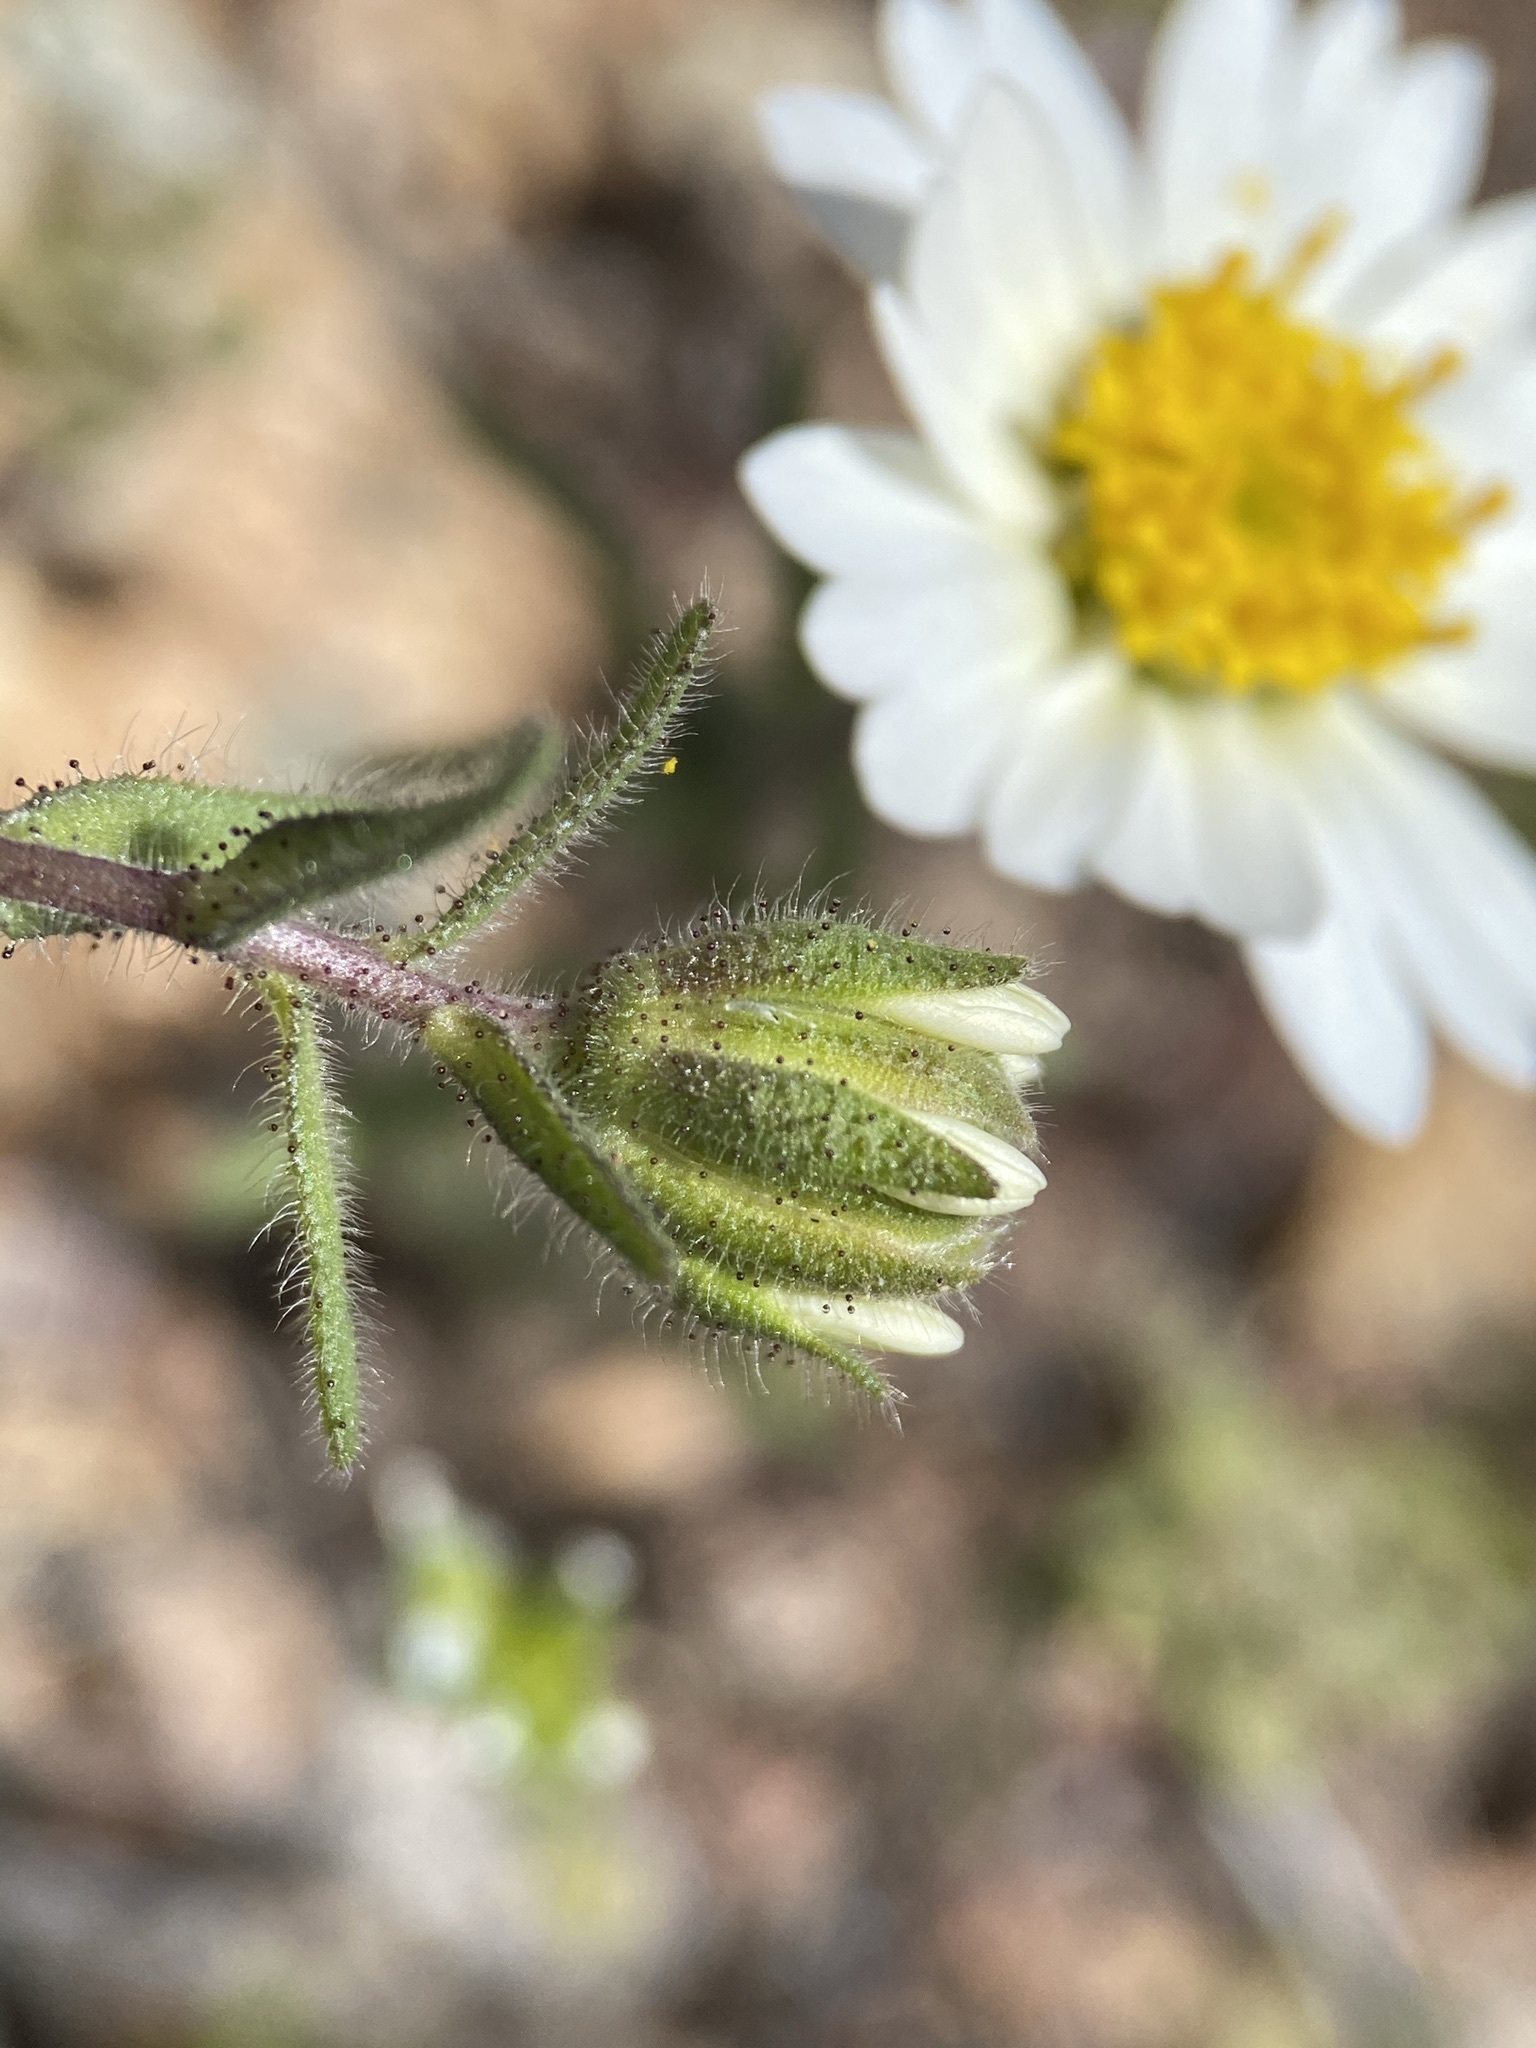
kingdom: Plantae
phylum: Tracheophyta
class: Magnoliopsida
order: Asterales
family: Asteraceae
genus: Layia
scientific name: Layia glandulosa
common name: White layia
